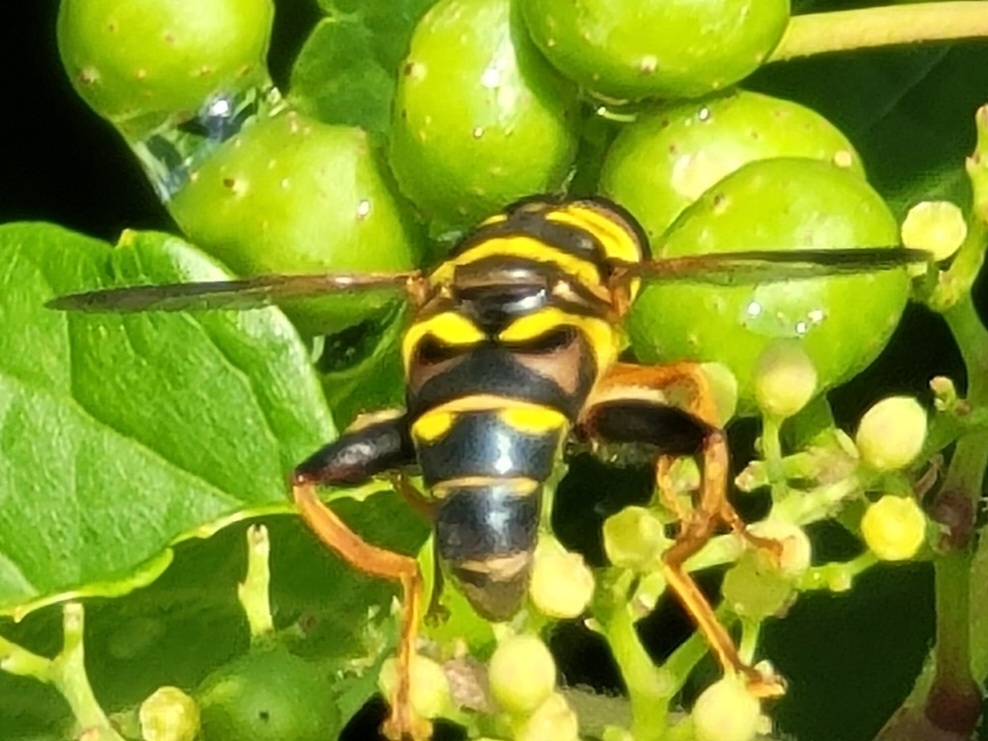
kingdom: Animalia
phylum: Arthropoda
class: Insecta
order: Diptera
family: Syrphidae
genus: Meromacrus
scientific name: Meromacrus acutus
